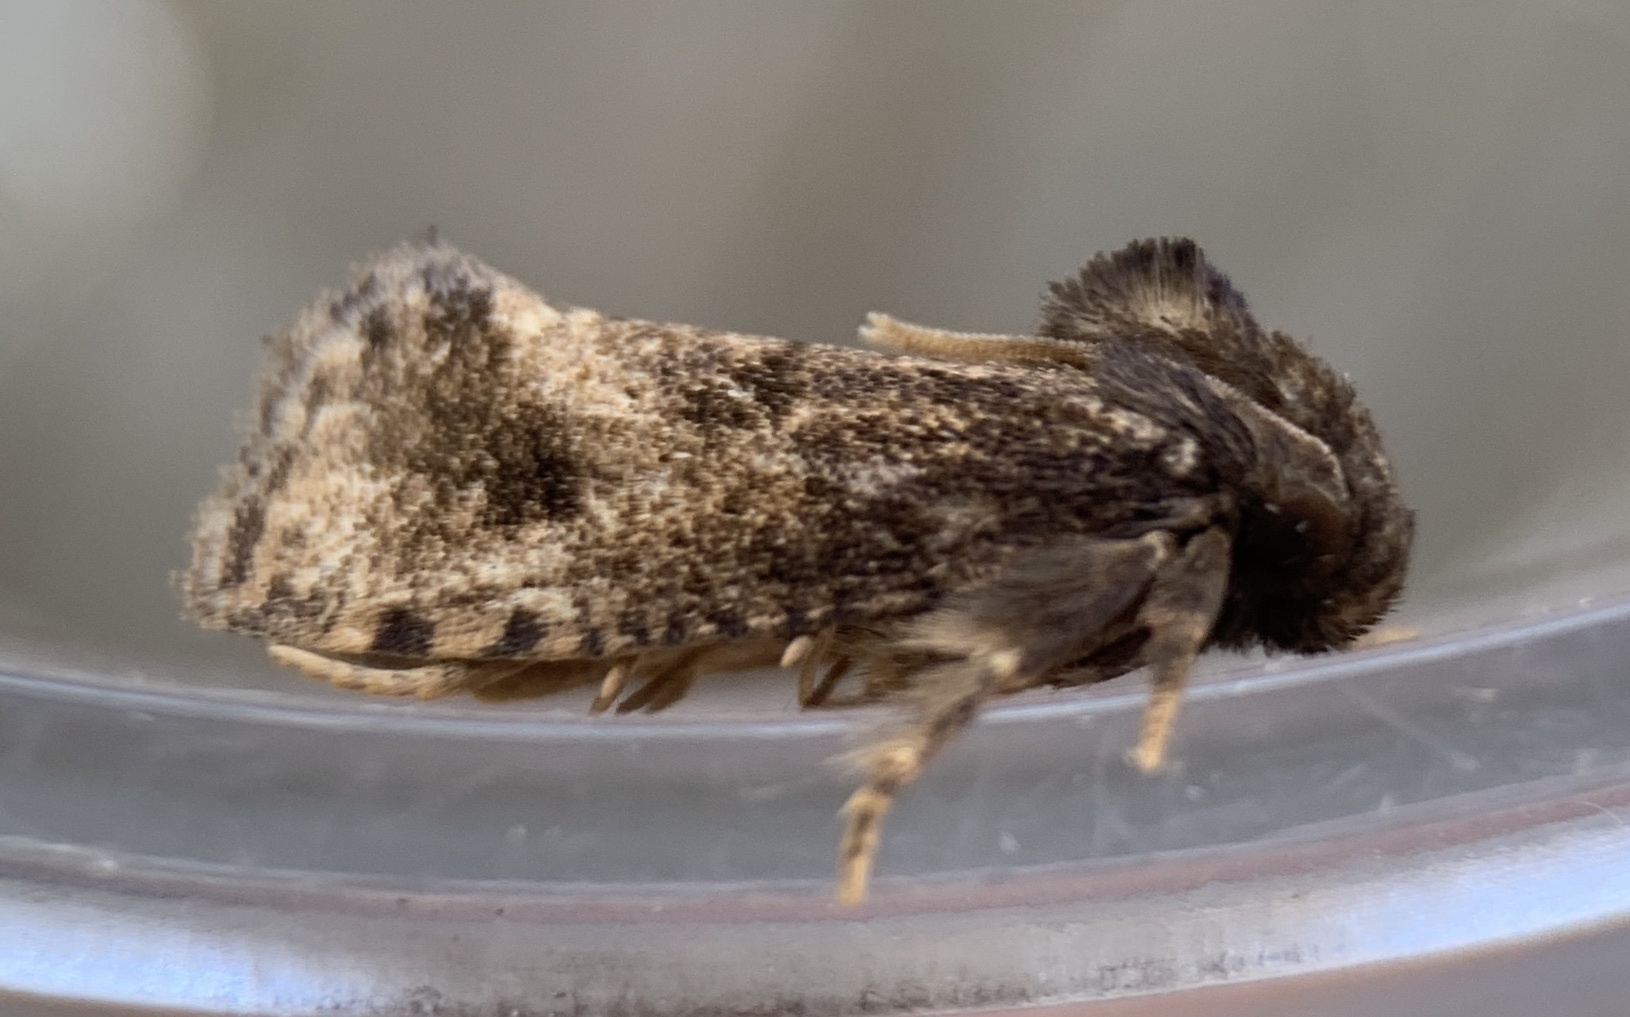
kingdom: Animalia
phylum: Arthropoda
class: Insecta
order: Lepidoptera
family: Tineidae
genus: Acrolophus
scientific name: Acrolophus texanella
